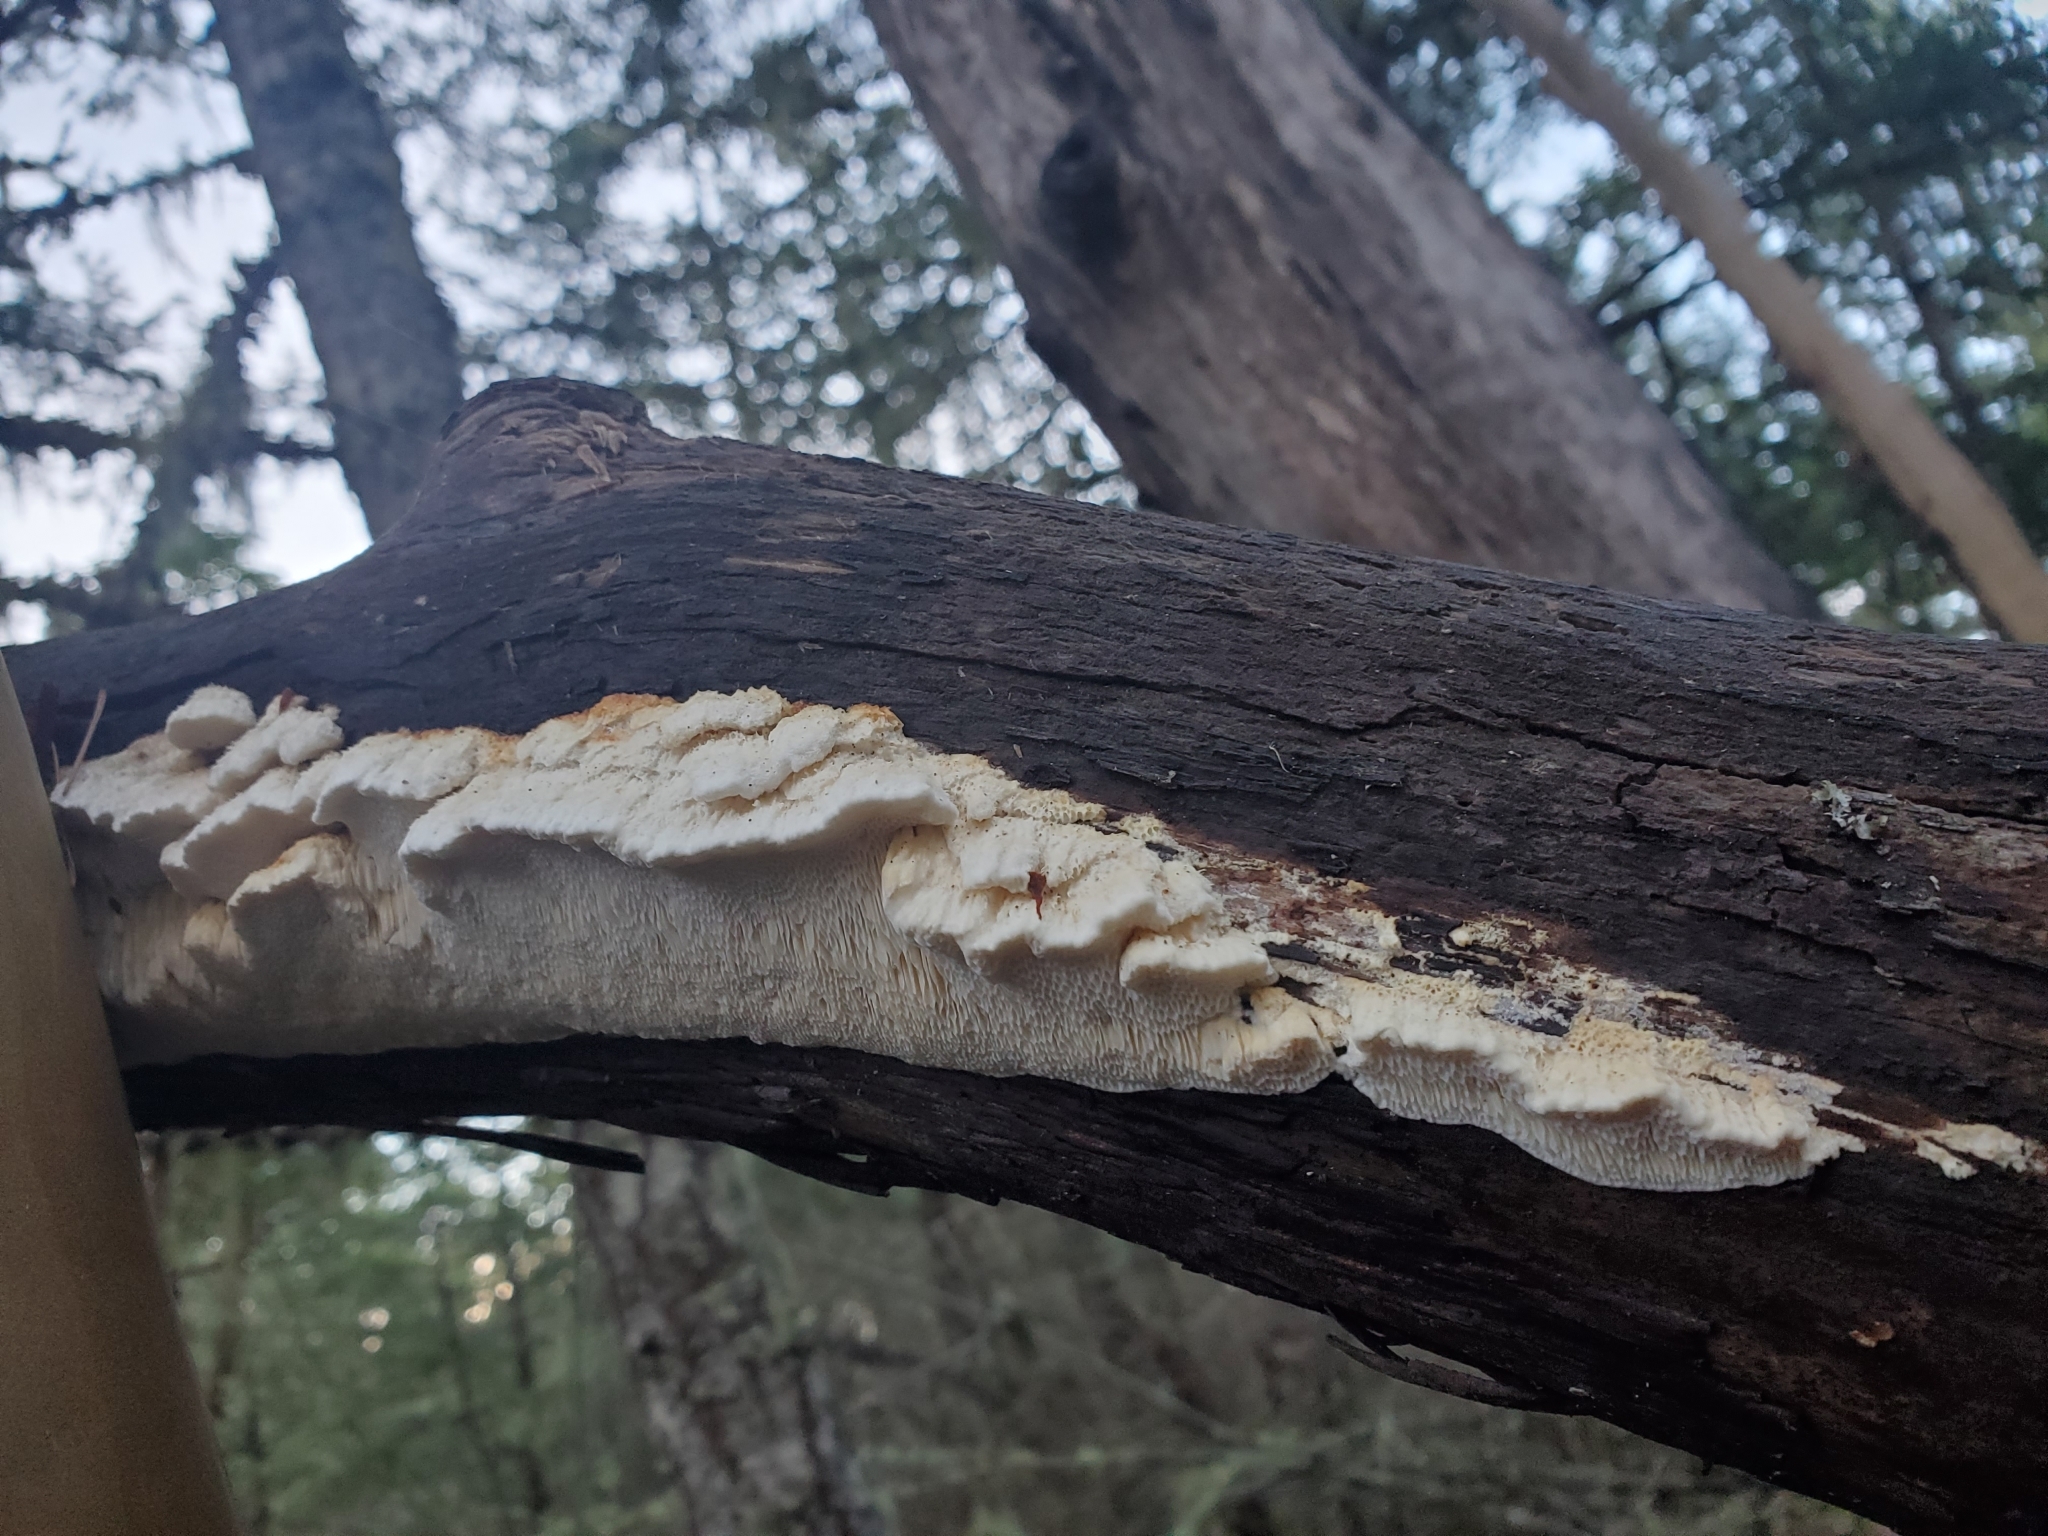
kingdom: Fungi
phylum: Basidiomycota
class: Agaricomycetes
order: Polyporales
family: Meruliaceae
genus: Irpiciporus
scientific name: Irpiciporus pachyodon
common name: Marshmallow polypore
